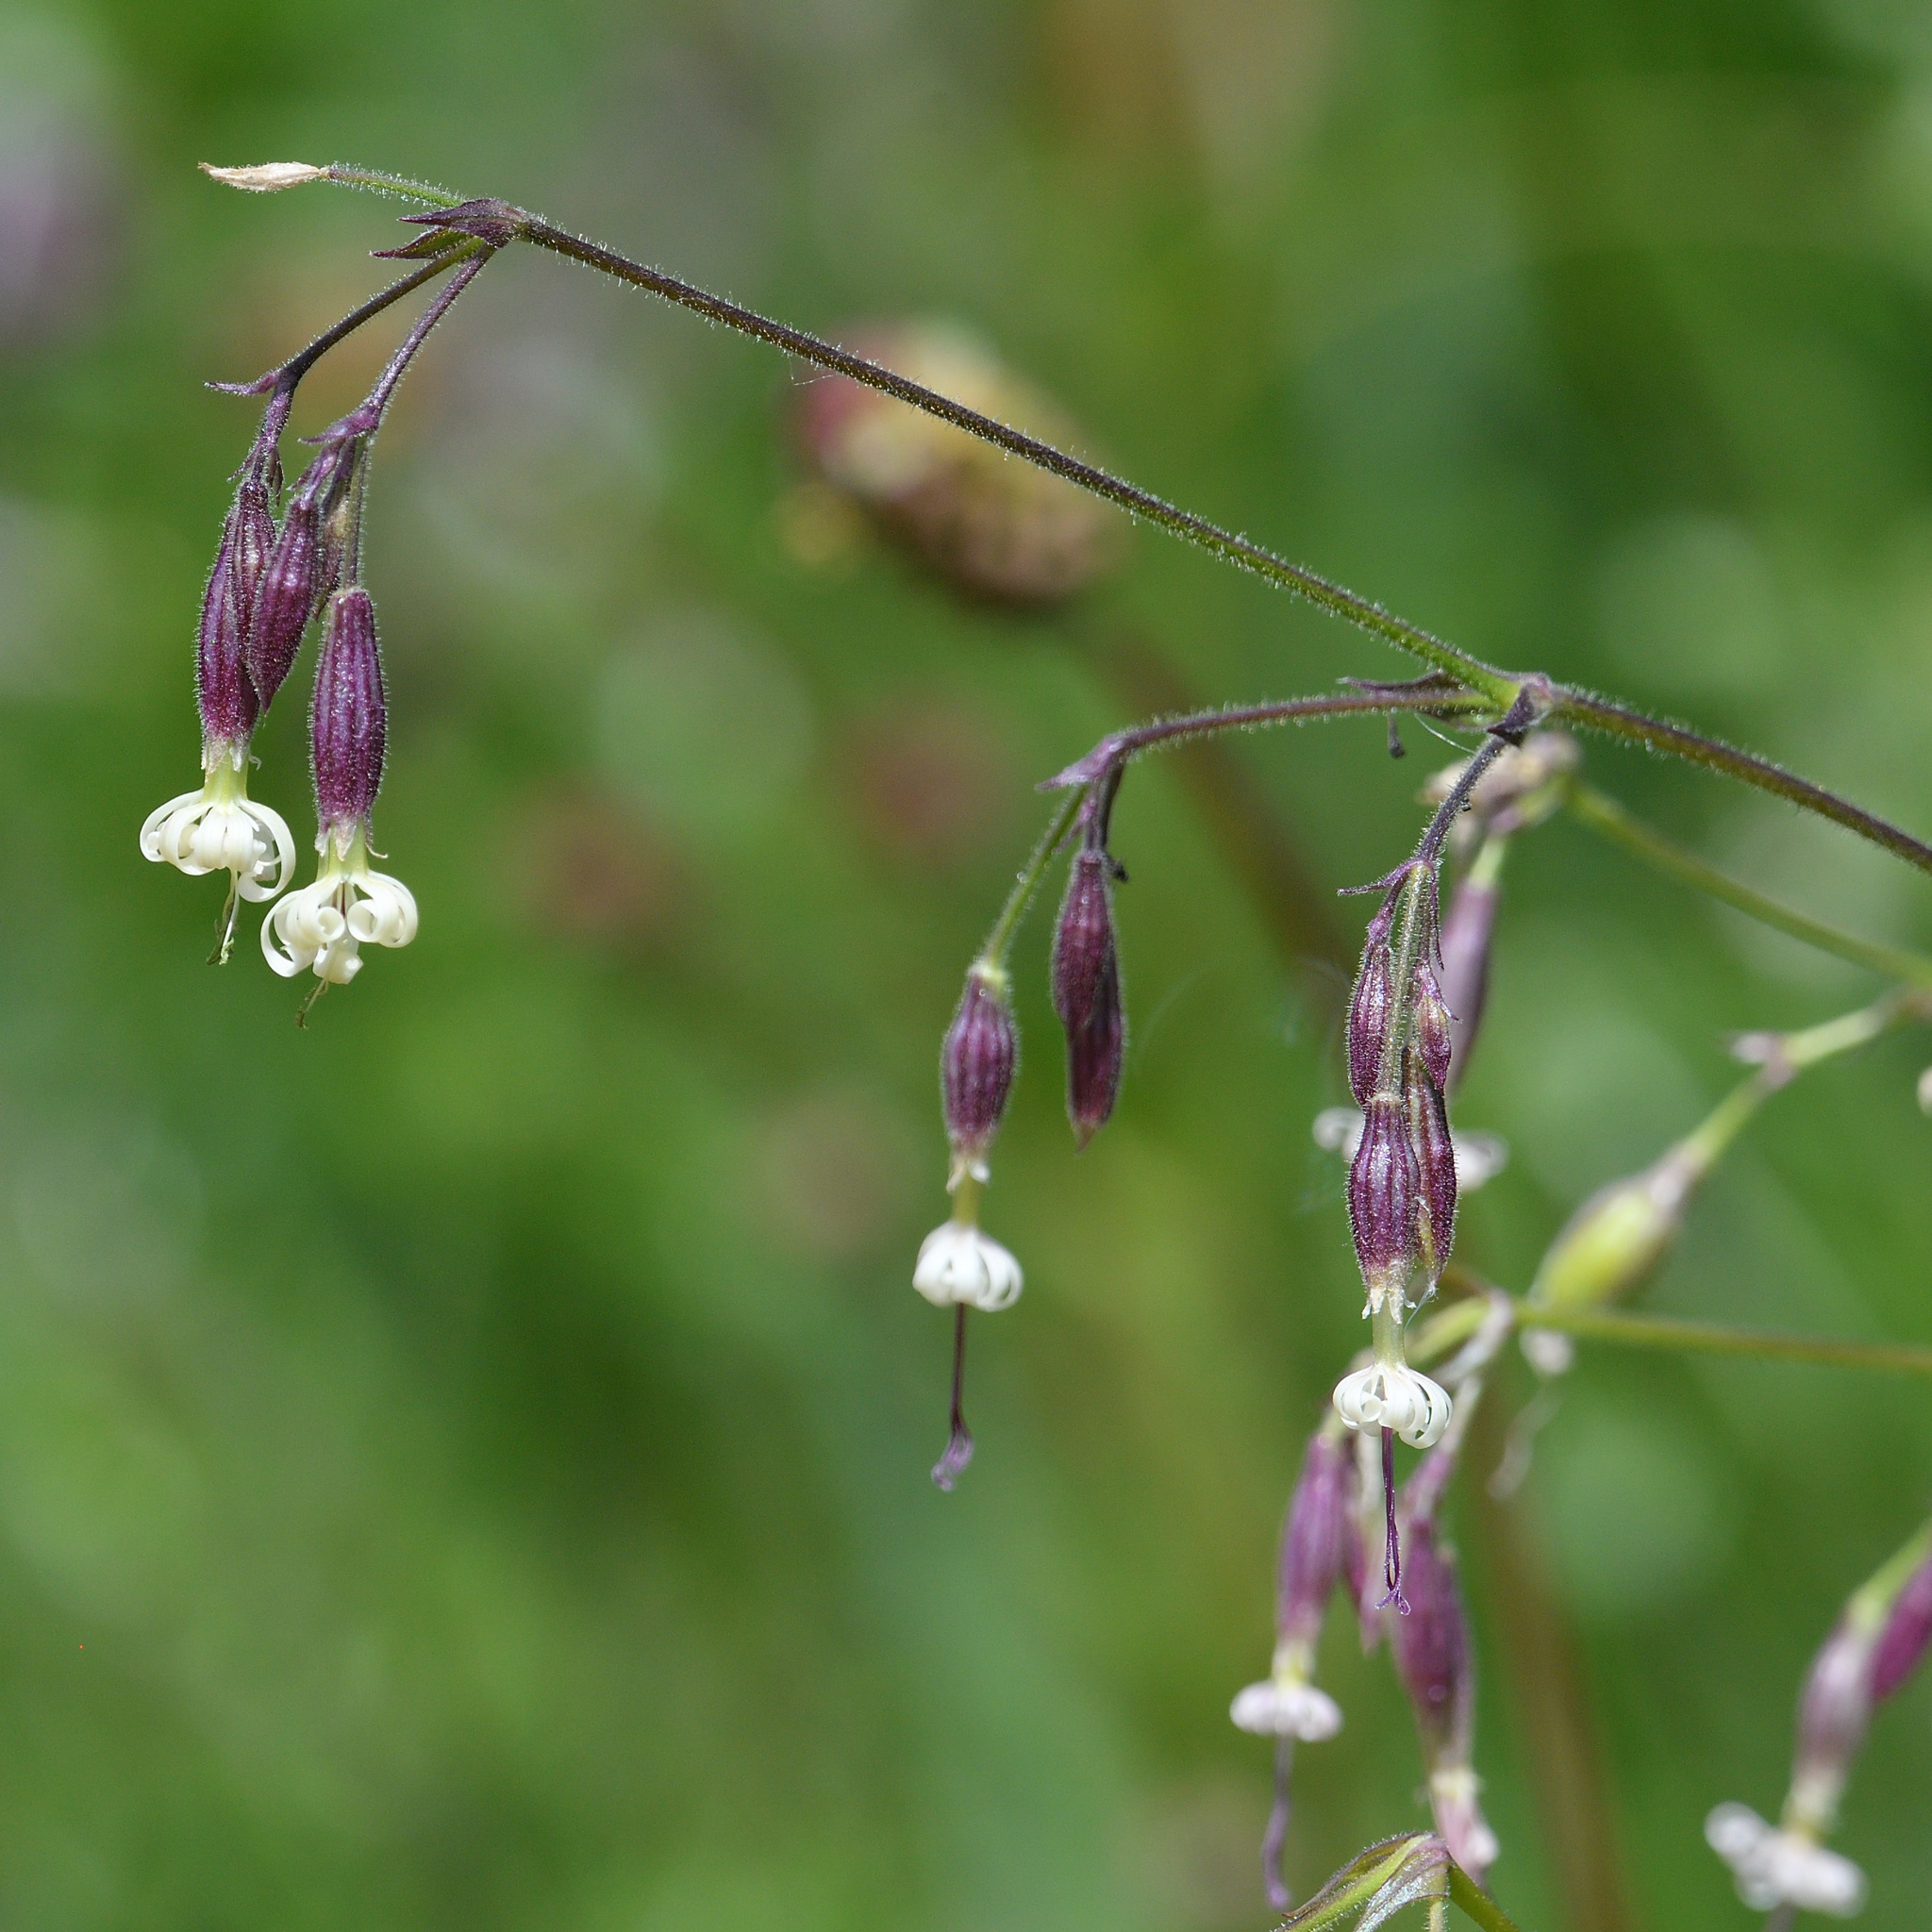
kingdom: Plantae
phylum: Tracheophyta
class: Magnoliopsida
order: Caryophyllales
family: Caryophyllaceae
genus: Silene
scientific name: Silene nutans
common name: Nottingham catchfly
